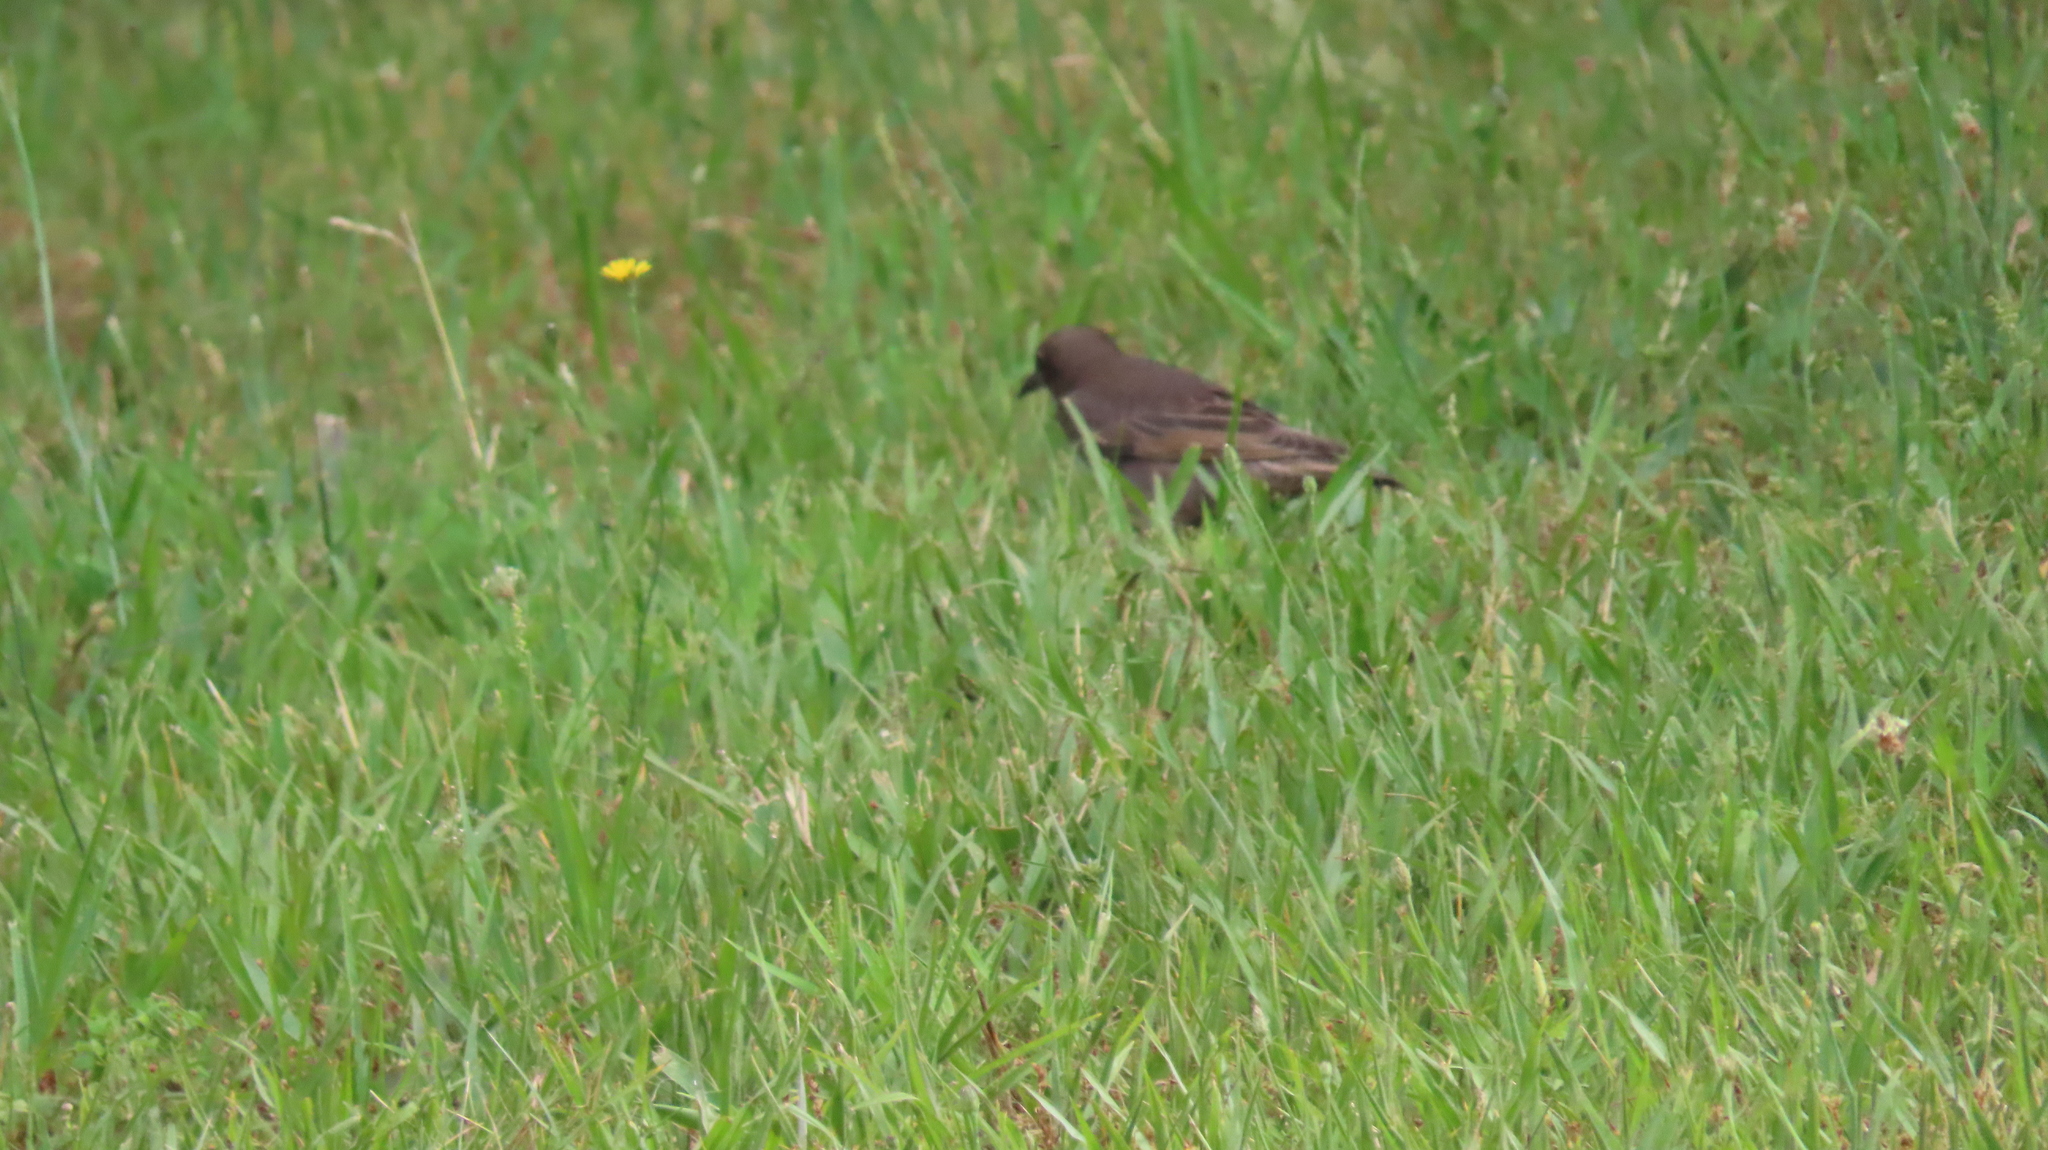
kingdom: Animalia
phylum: Chordata
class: Aves
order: Passeriformes
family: Sturnidae
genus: Sturnus
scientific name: Sturnus vulgaris
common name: Common starling
